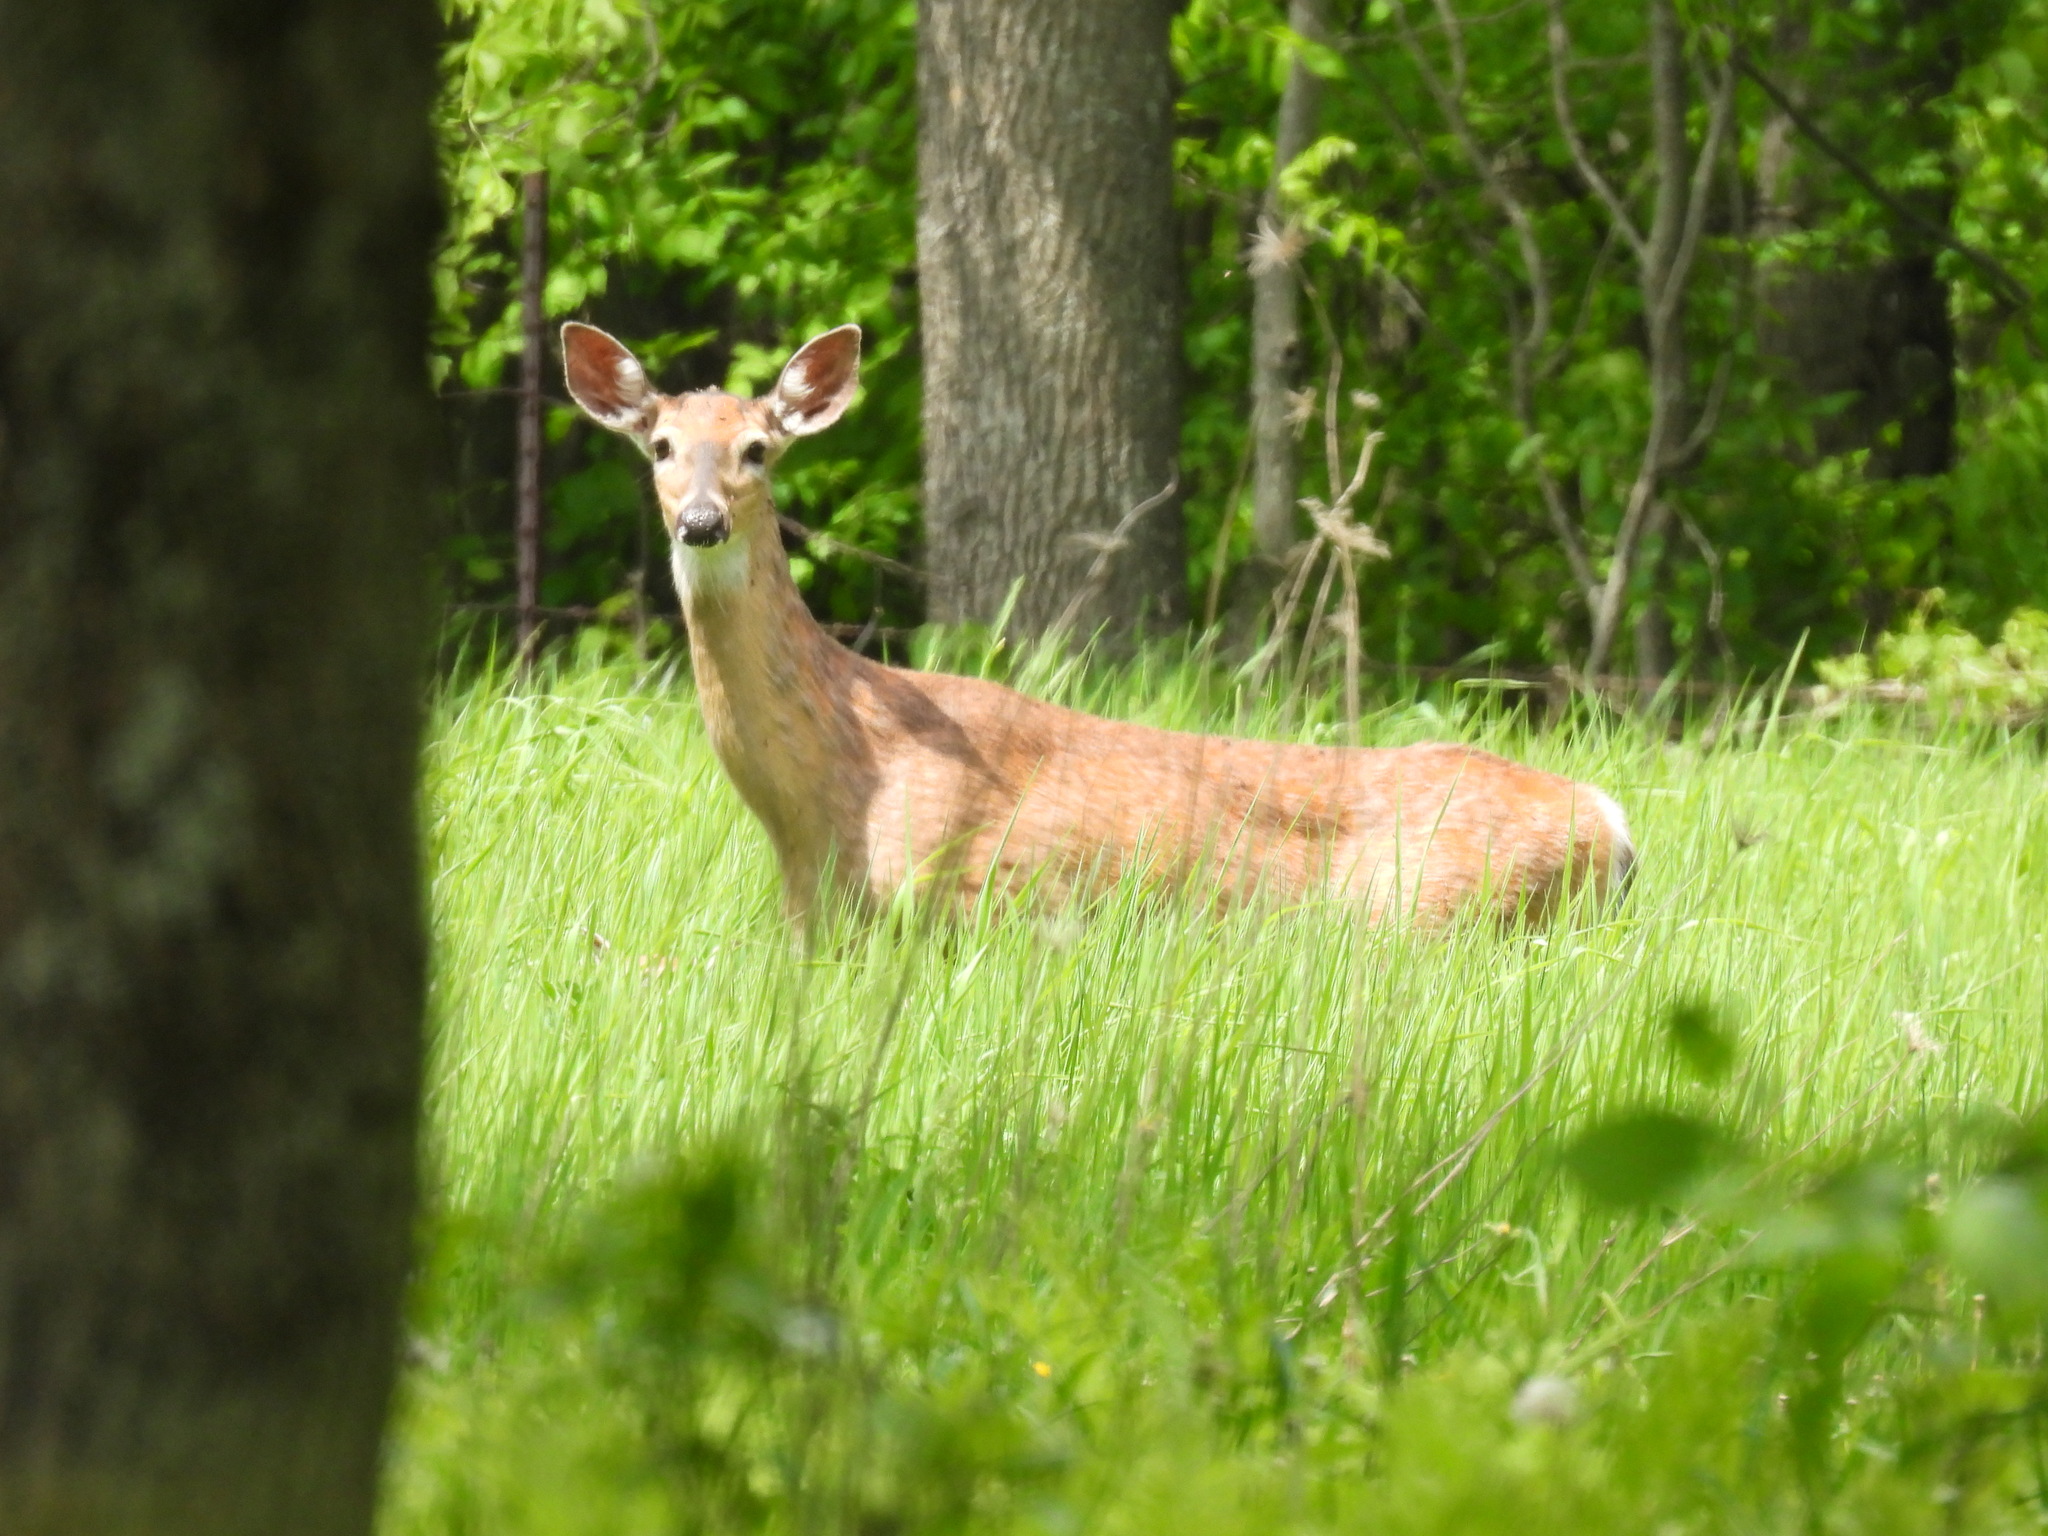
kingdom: Animalia
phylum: Chordata
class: Mammalia
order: Artiodactyla
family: Cervidae
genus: Odocoileus
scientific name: Odocoileus virginianus
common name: White-tailed deer
